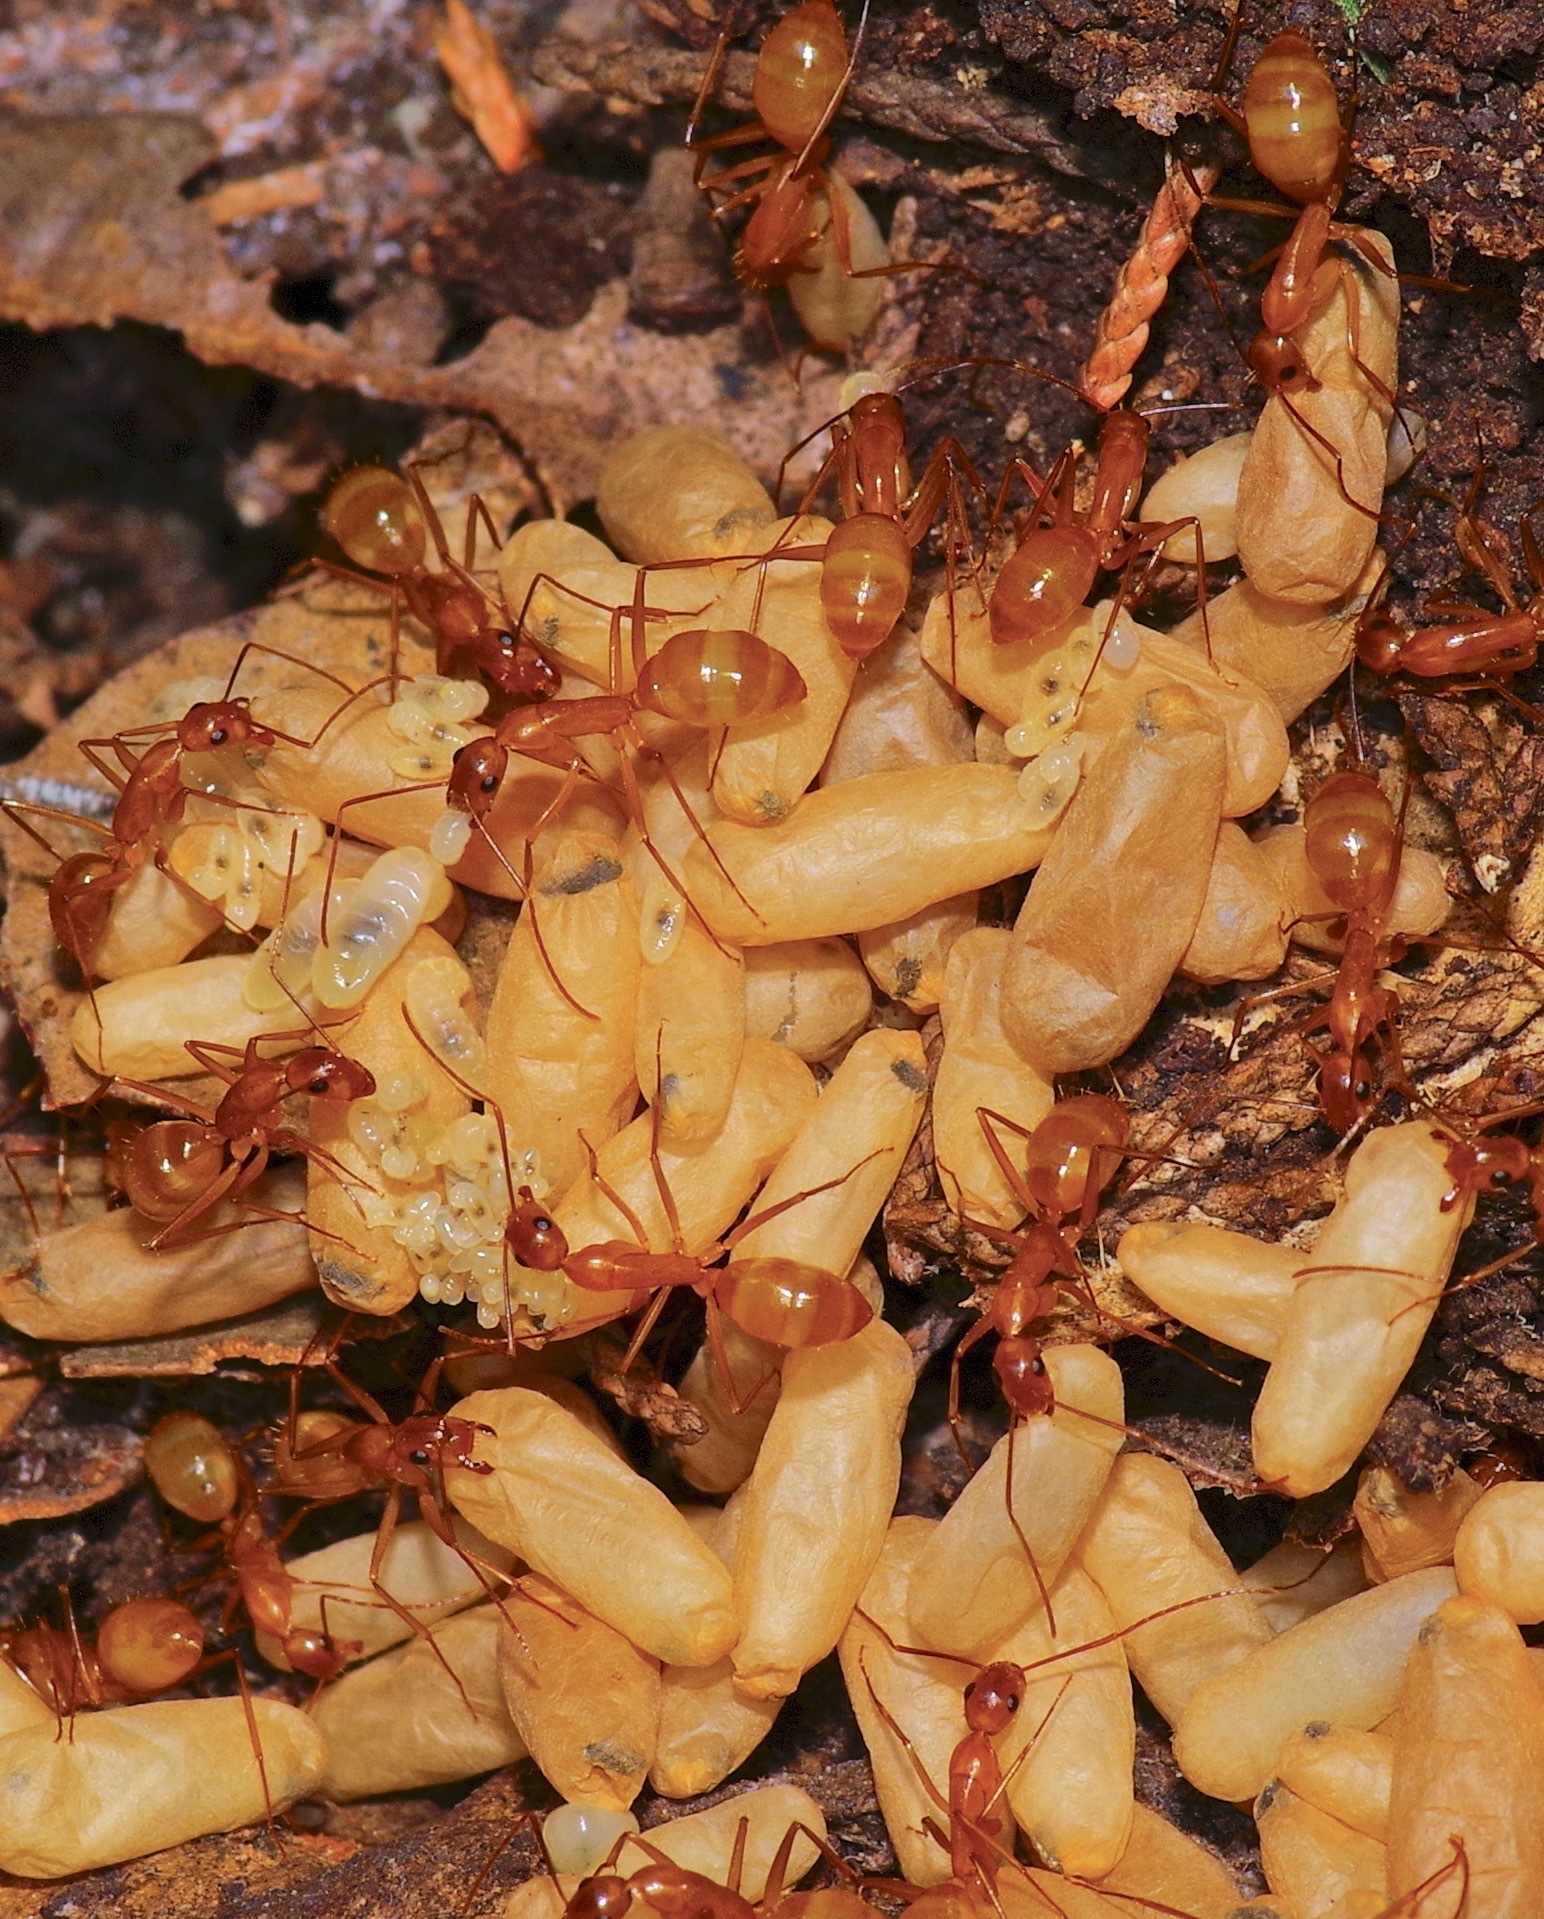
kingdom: Animalia
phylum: Arthropoda
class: Insecta
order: Hymenoptera
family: Formicidae
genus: Camponotus
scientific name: Camponotus festinatus
